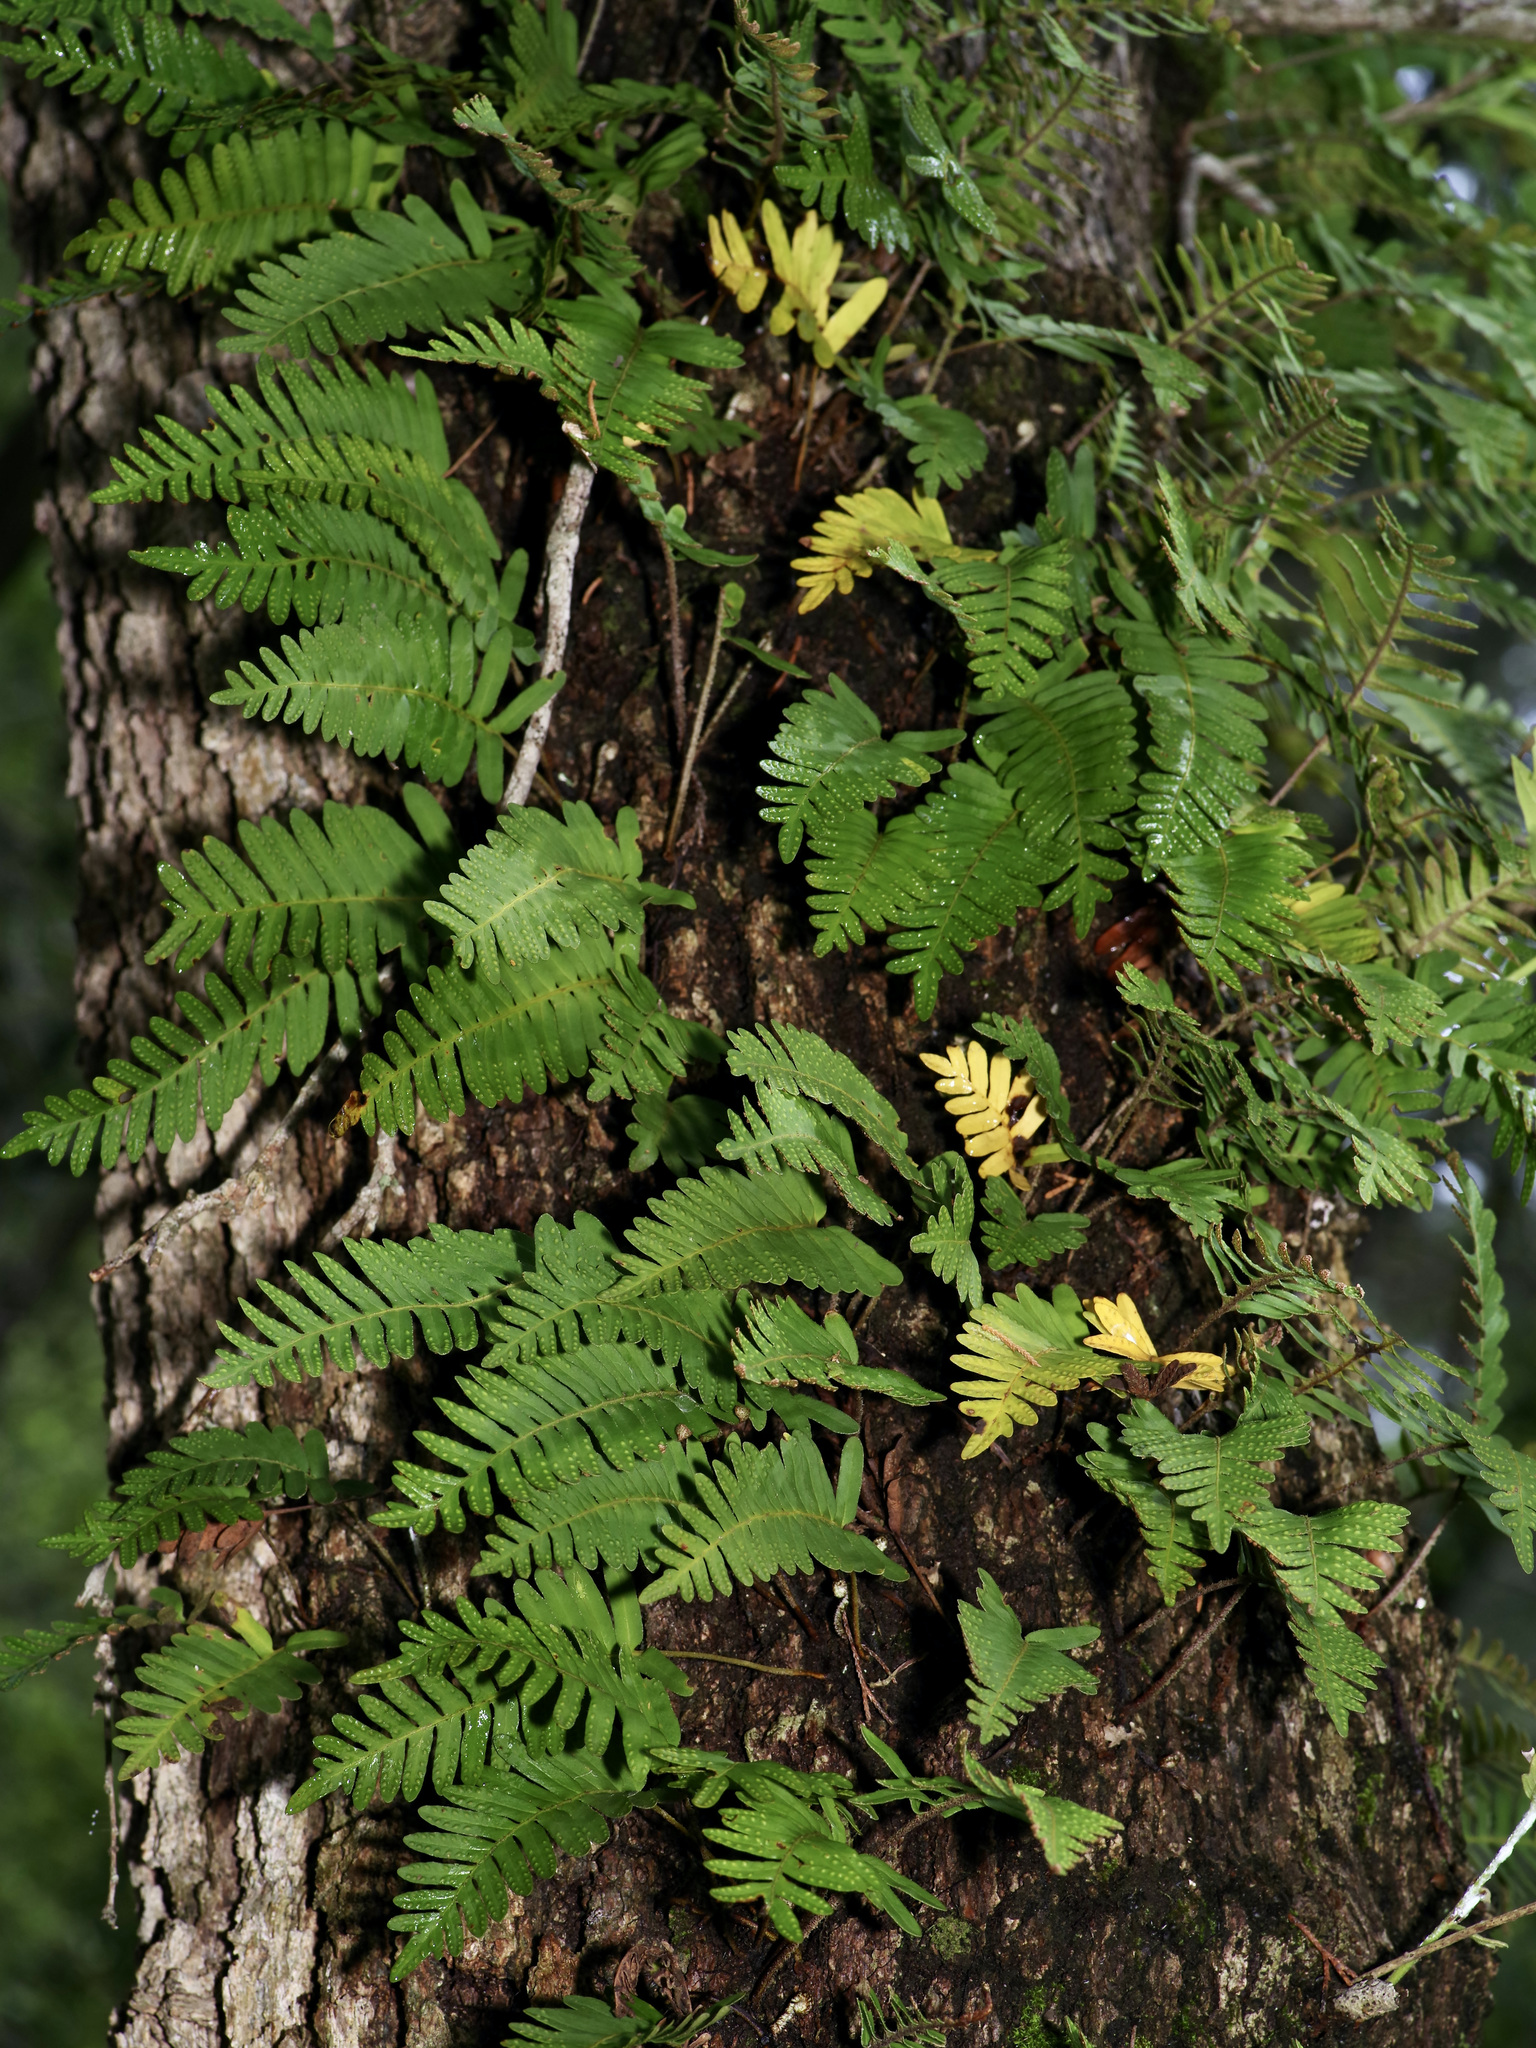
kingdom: Plantae
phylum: Tracheophyta
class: Polypodiopsida
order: Polypodiales
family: Polypodiaceae
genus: Pleopeltis
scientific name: Pleopeltis michauxiana
